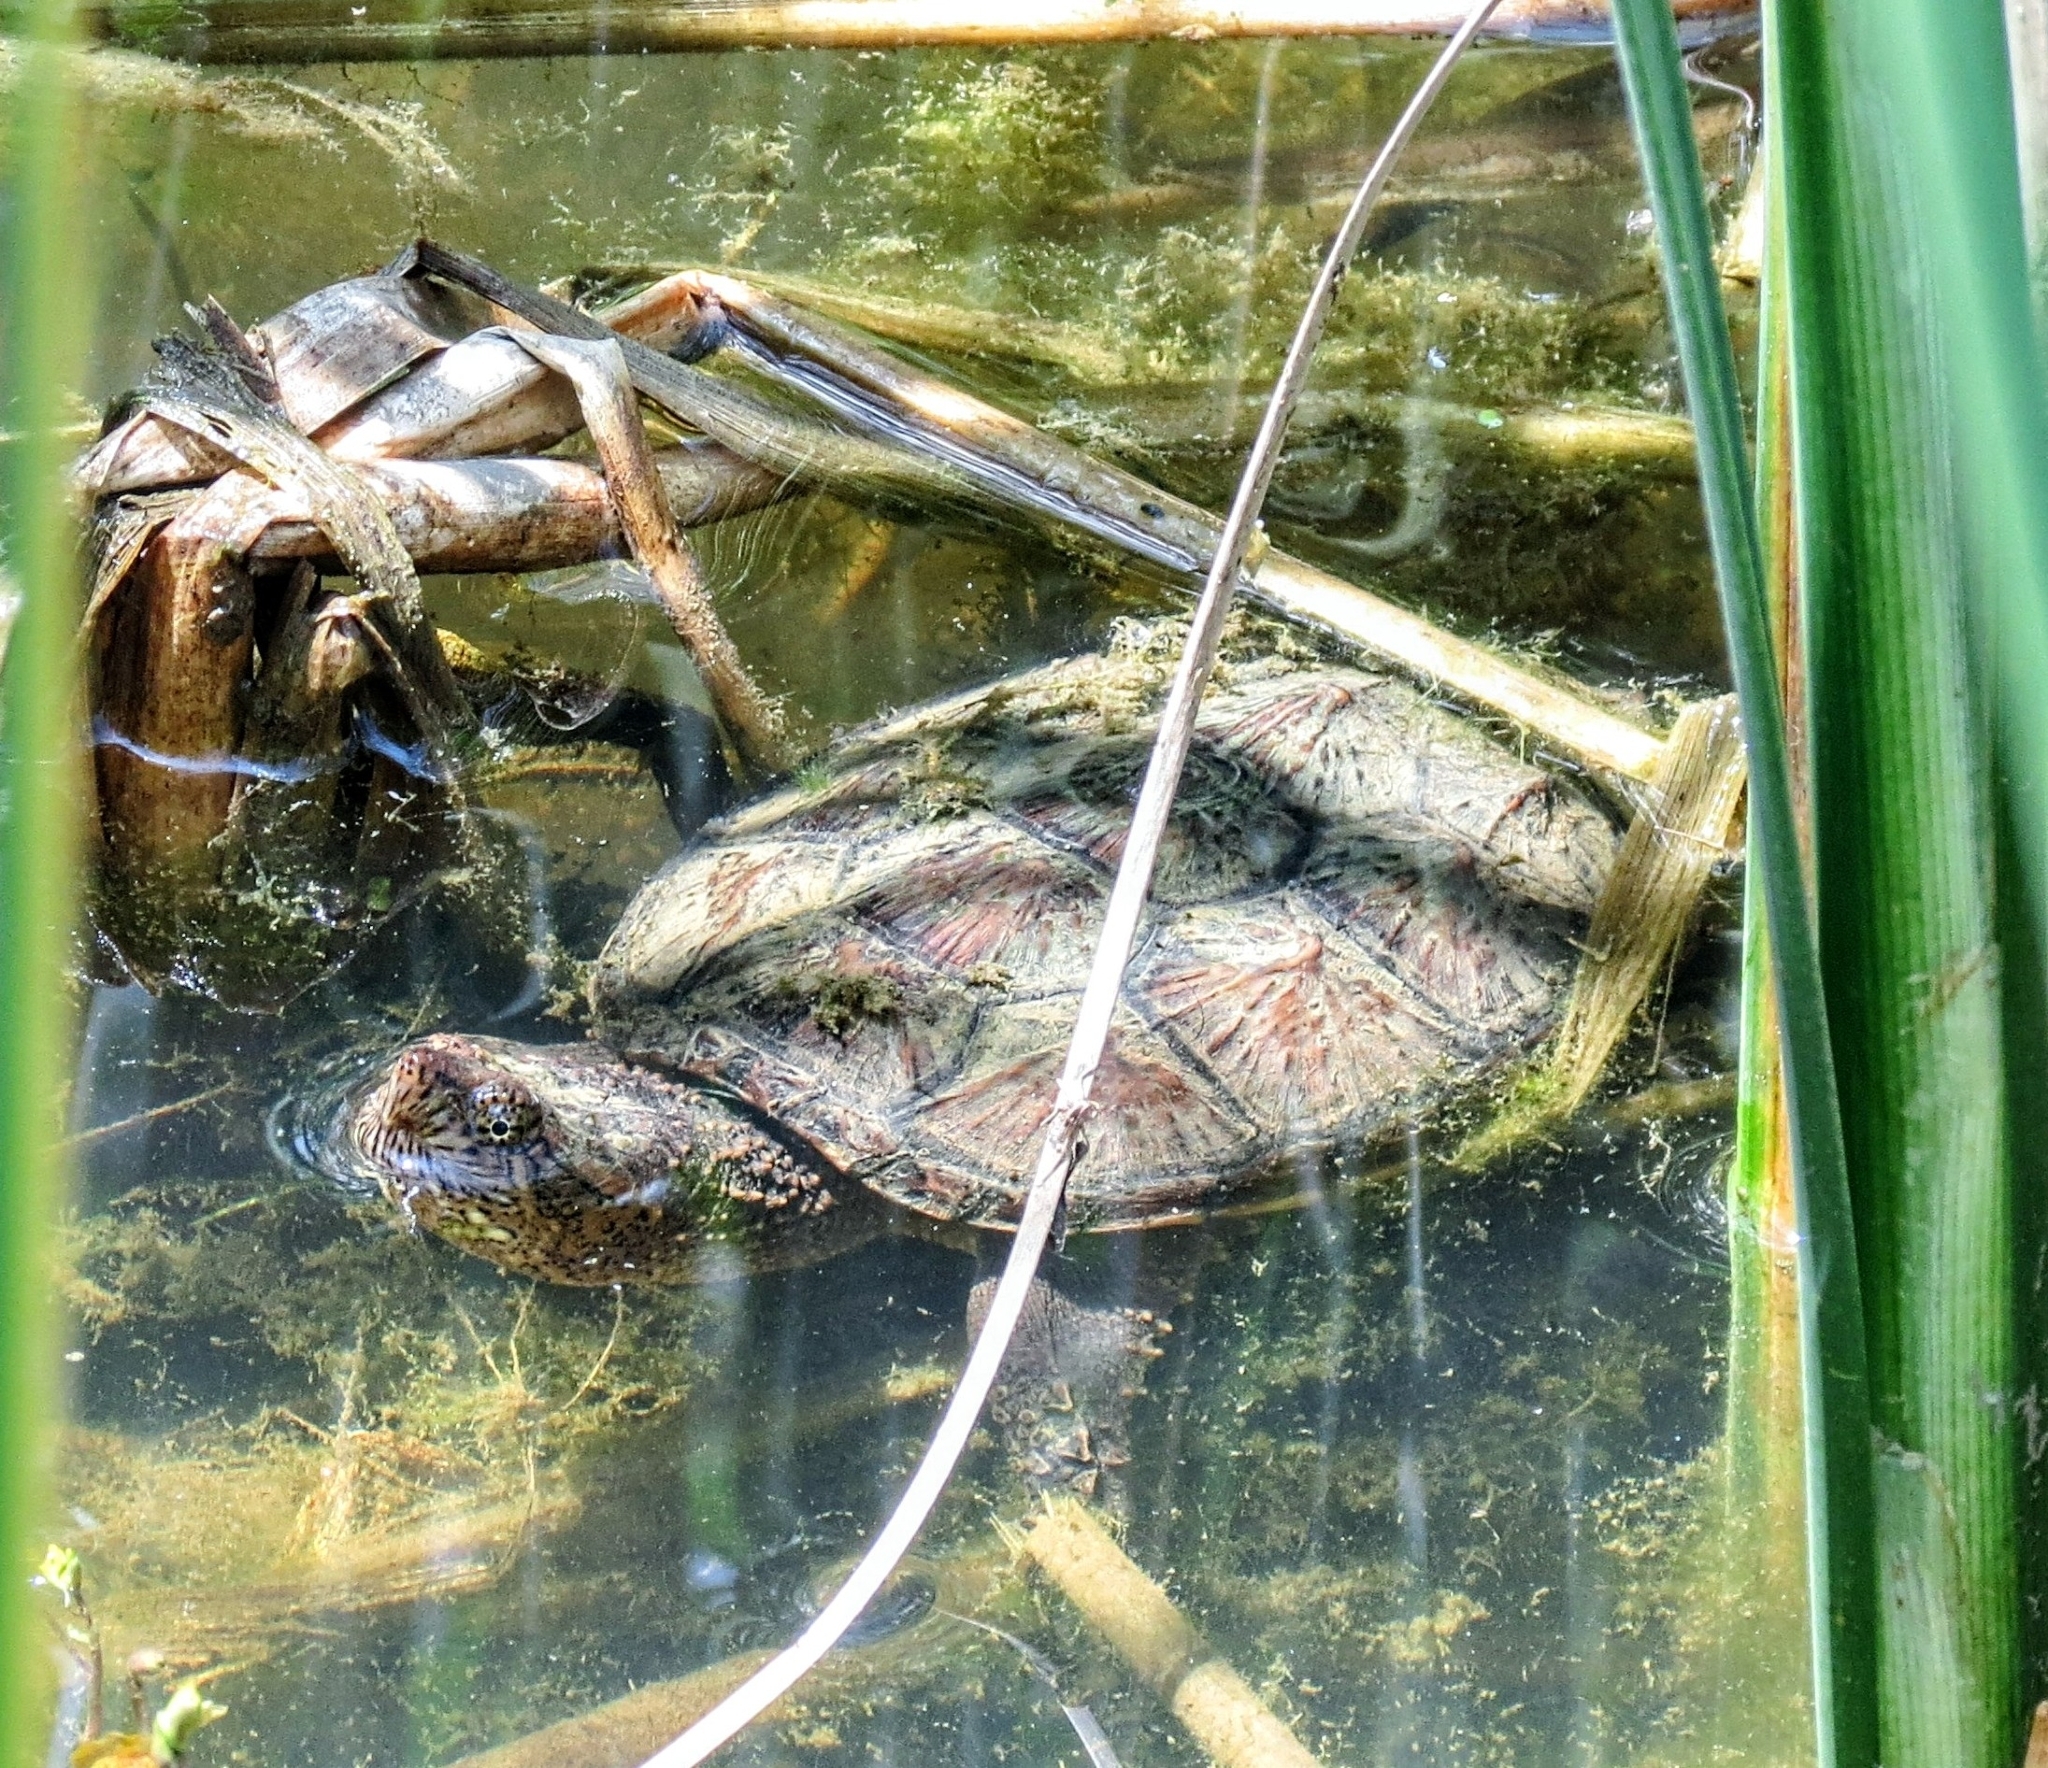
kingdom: Animalia
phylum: Chordata
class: Testudines
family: Chelydridae
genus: Chelydra
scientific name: Chelydra serpentina
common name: Common snapping turtle
